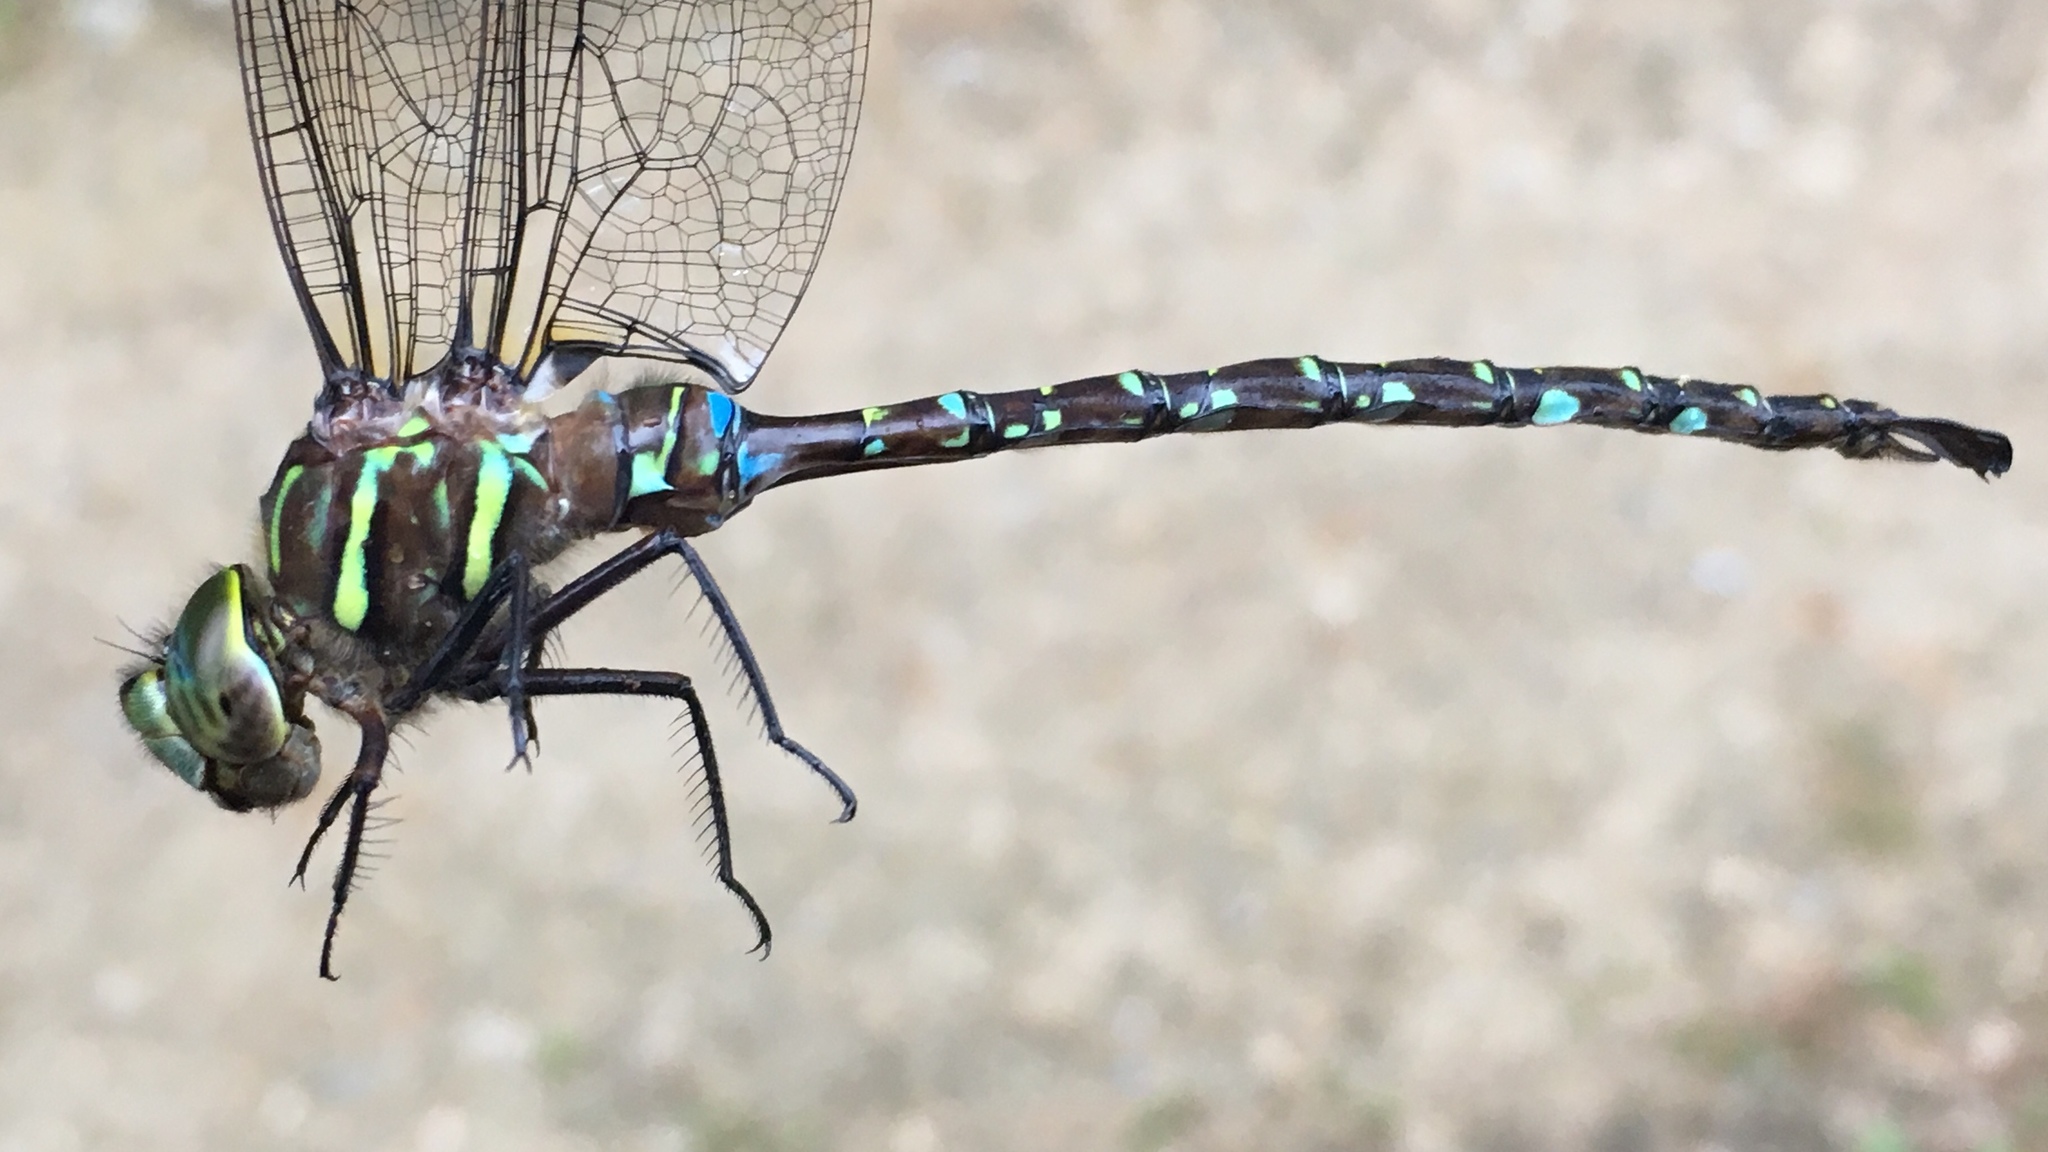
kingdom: Animalia
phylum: Arthropoda
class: Insecta
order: Odonata
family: Aeshnidae
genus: Aeshna
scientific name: Aeshna umbrosa
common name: Shadow darner
